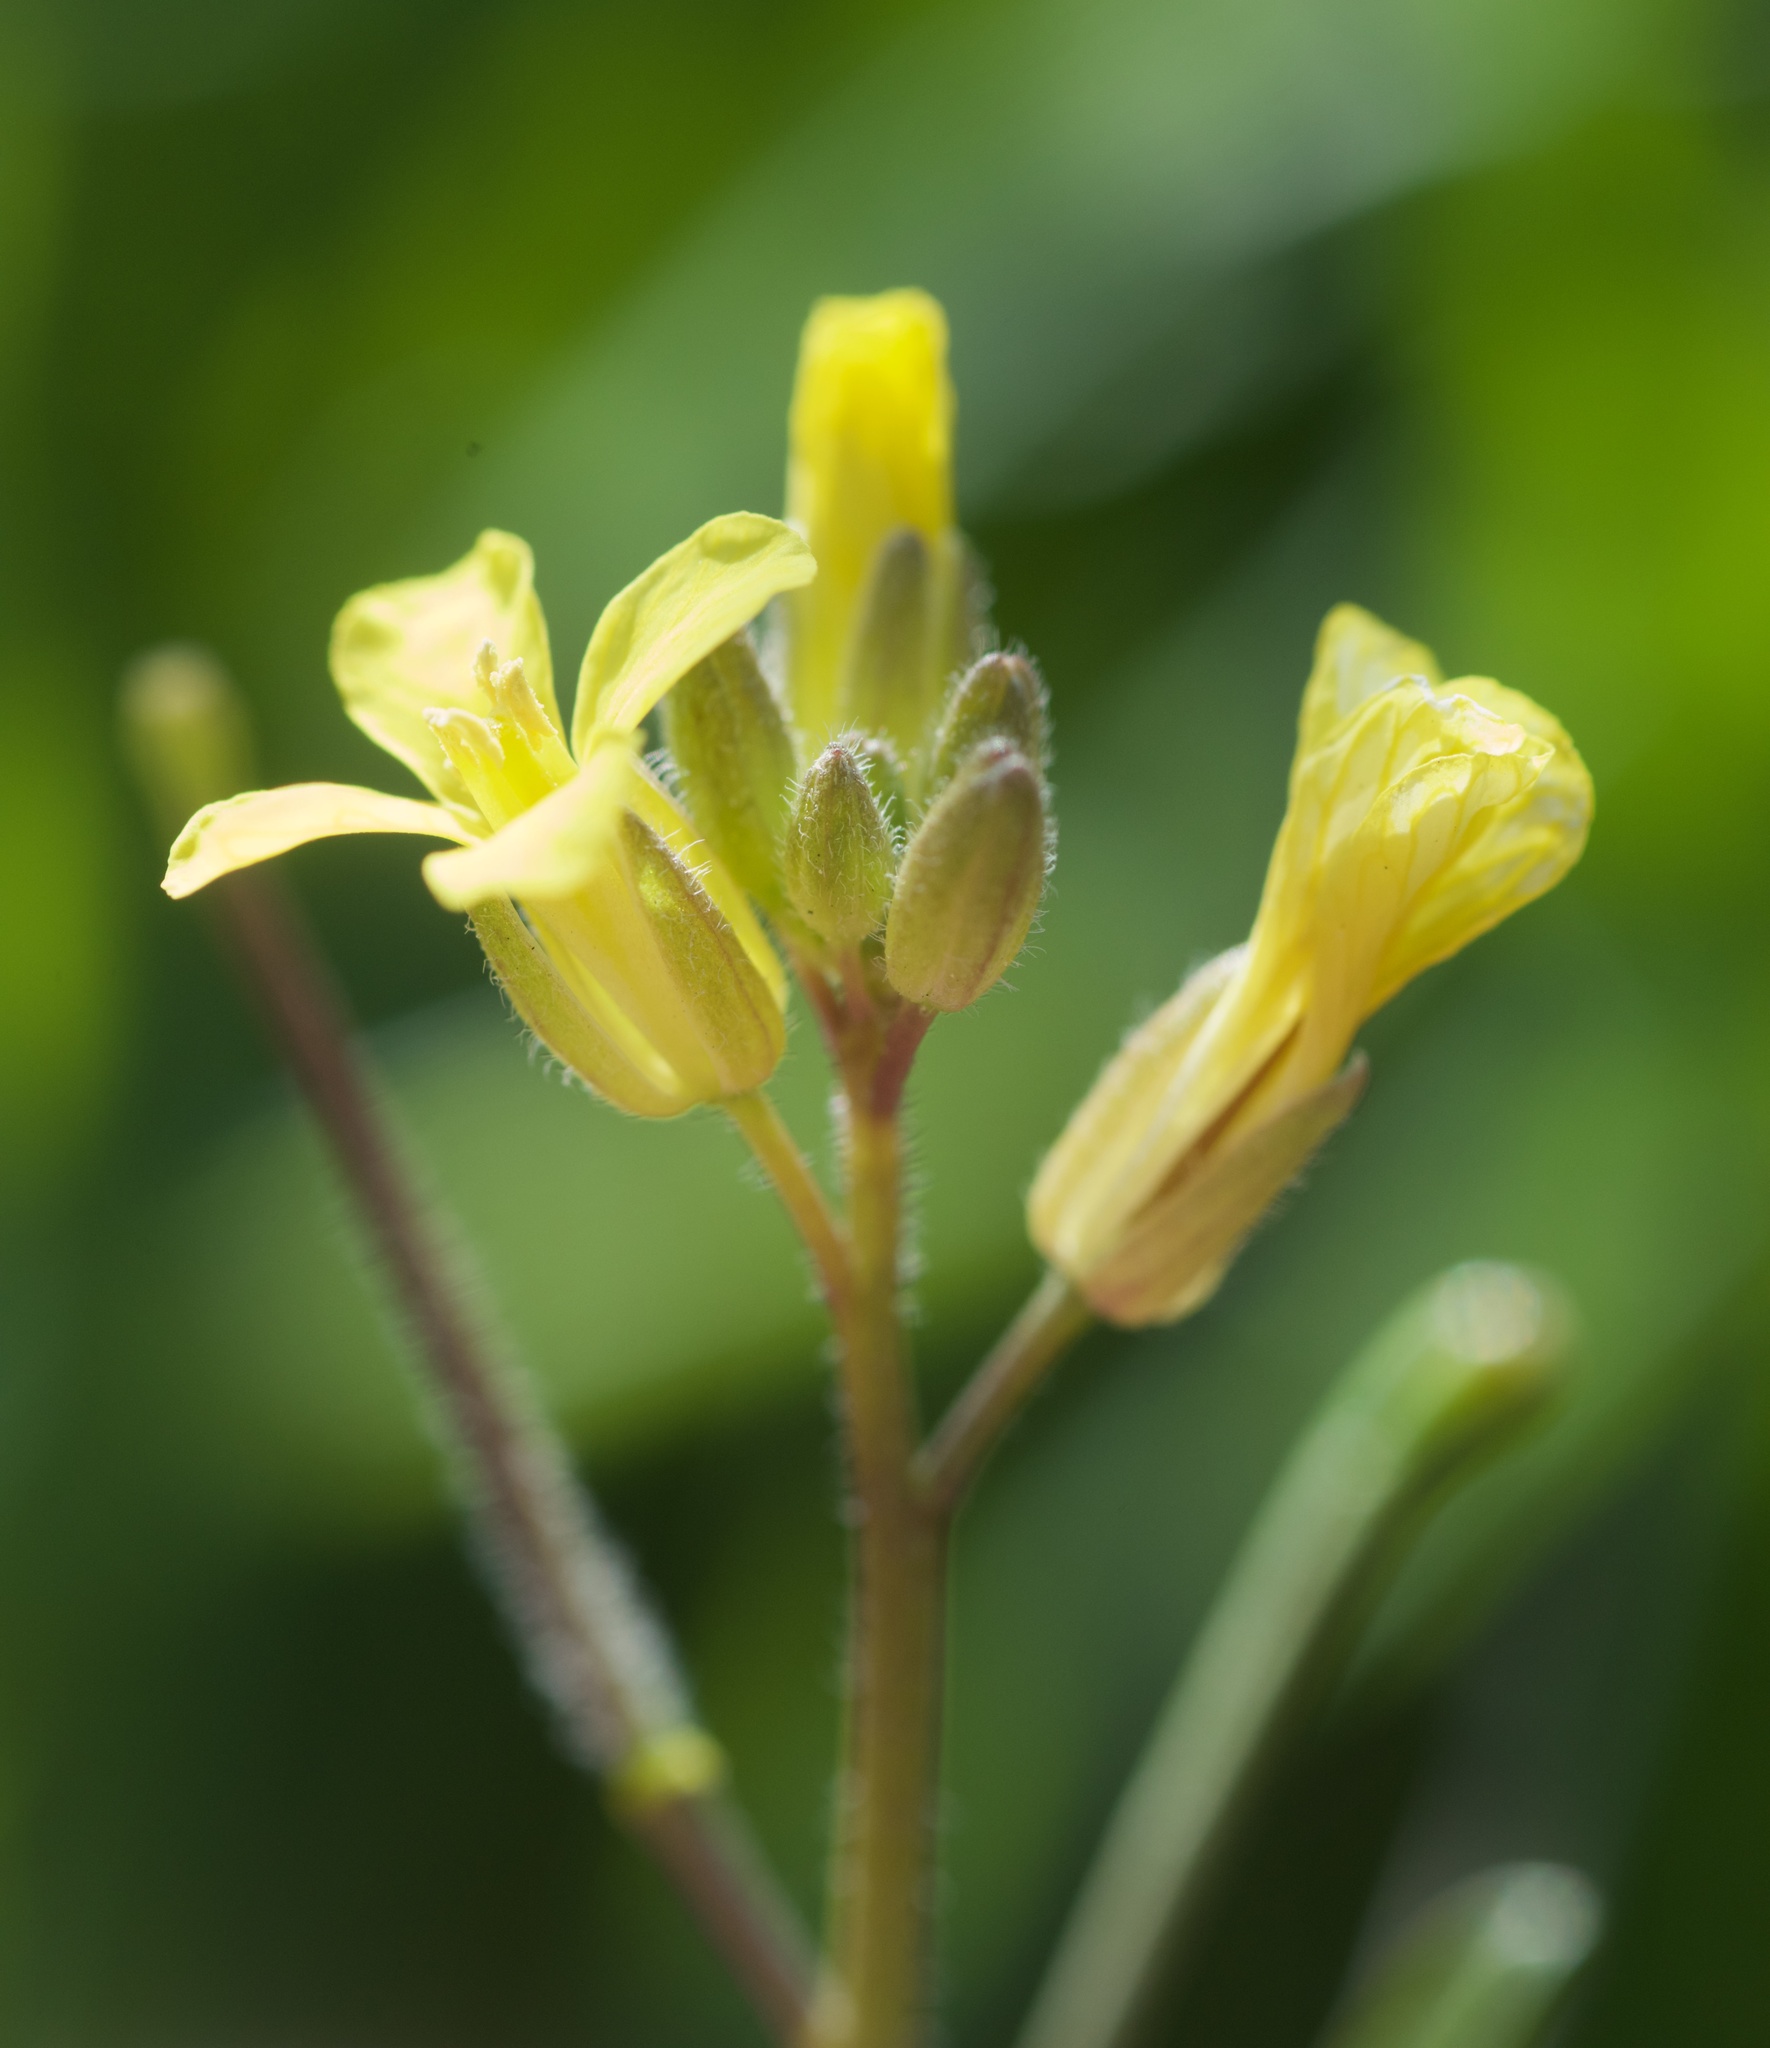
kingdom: Plantae
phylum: Tracheophyta
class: Magnoliopsida
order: Brassicales
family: Brassicaceae
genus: Sisymbrium
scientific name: Sisymbrium orientale
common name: Eastern rocket
